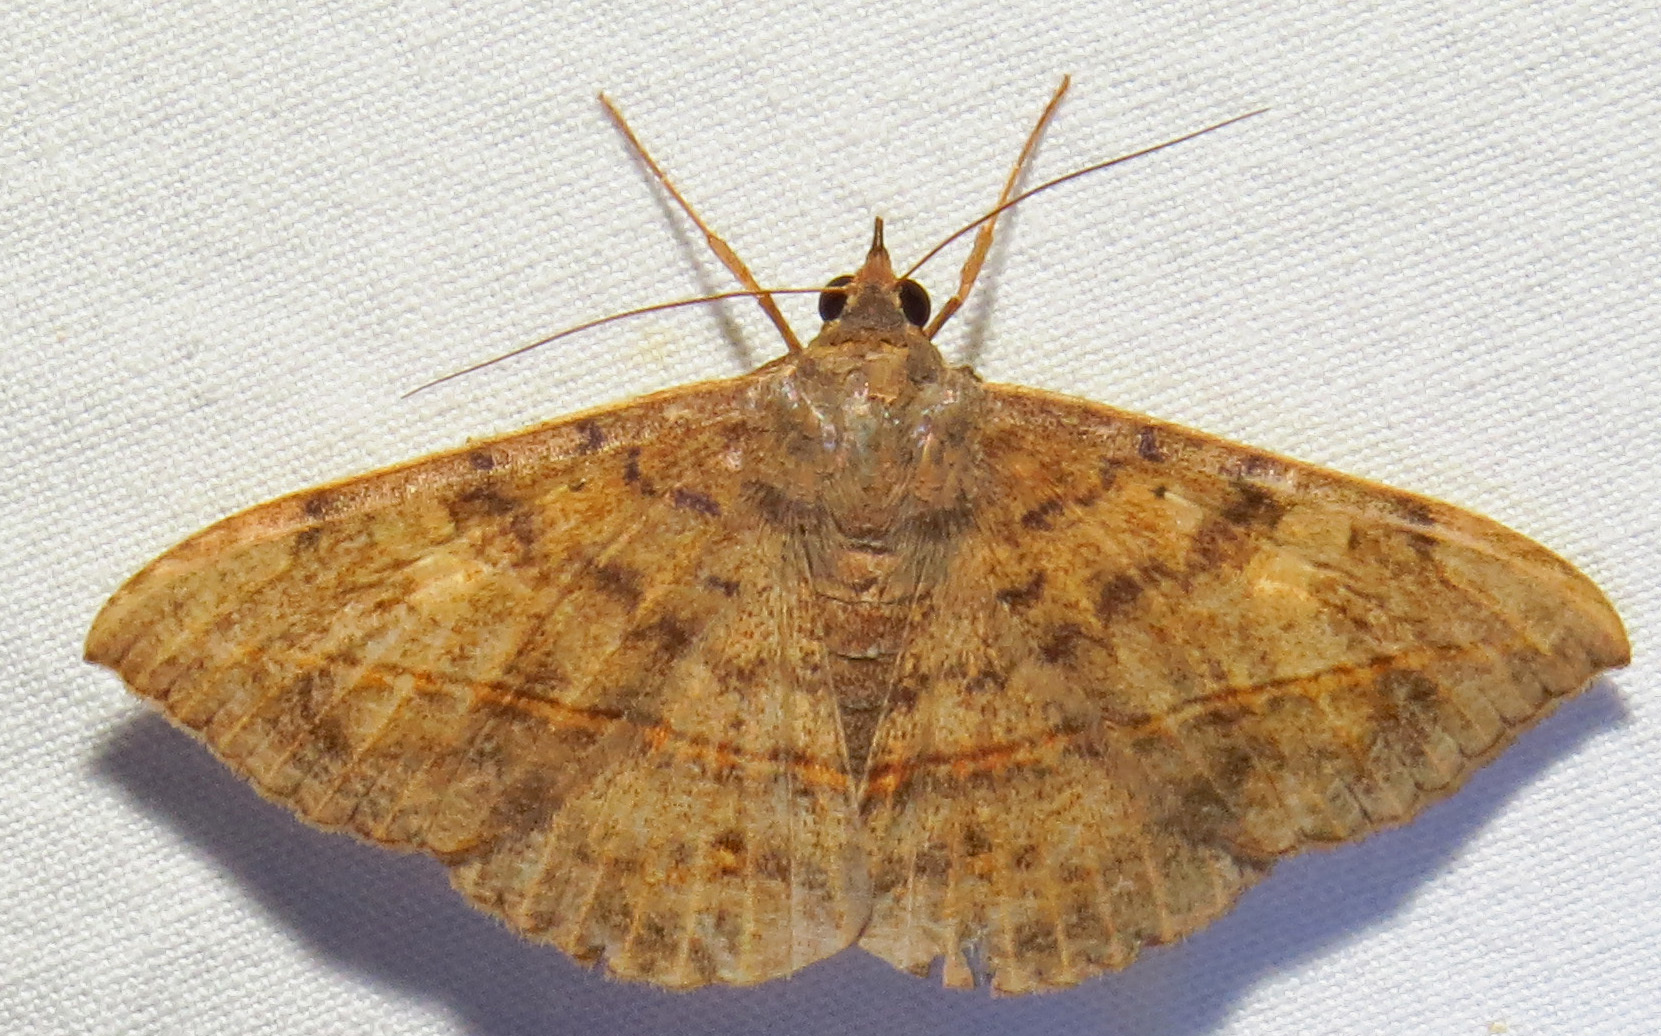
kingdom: Animalia
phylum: Arthropoda
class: Insecta
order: Lepidoptera
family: Erebidae
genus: Anticarsia
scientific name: Anticarsia gemmatalis
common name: Cutworm moth
